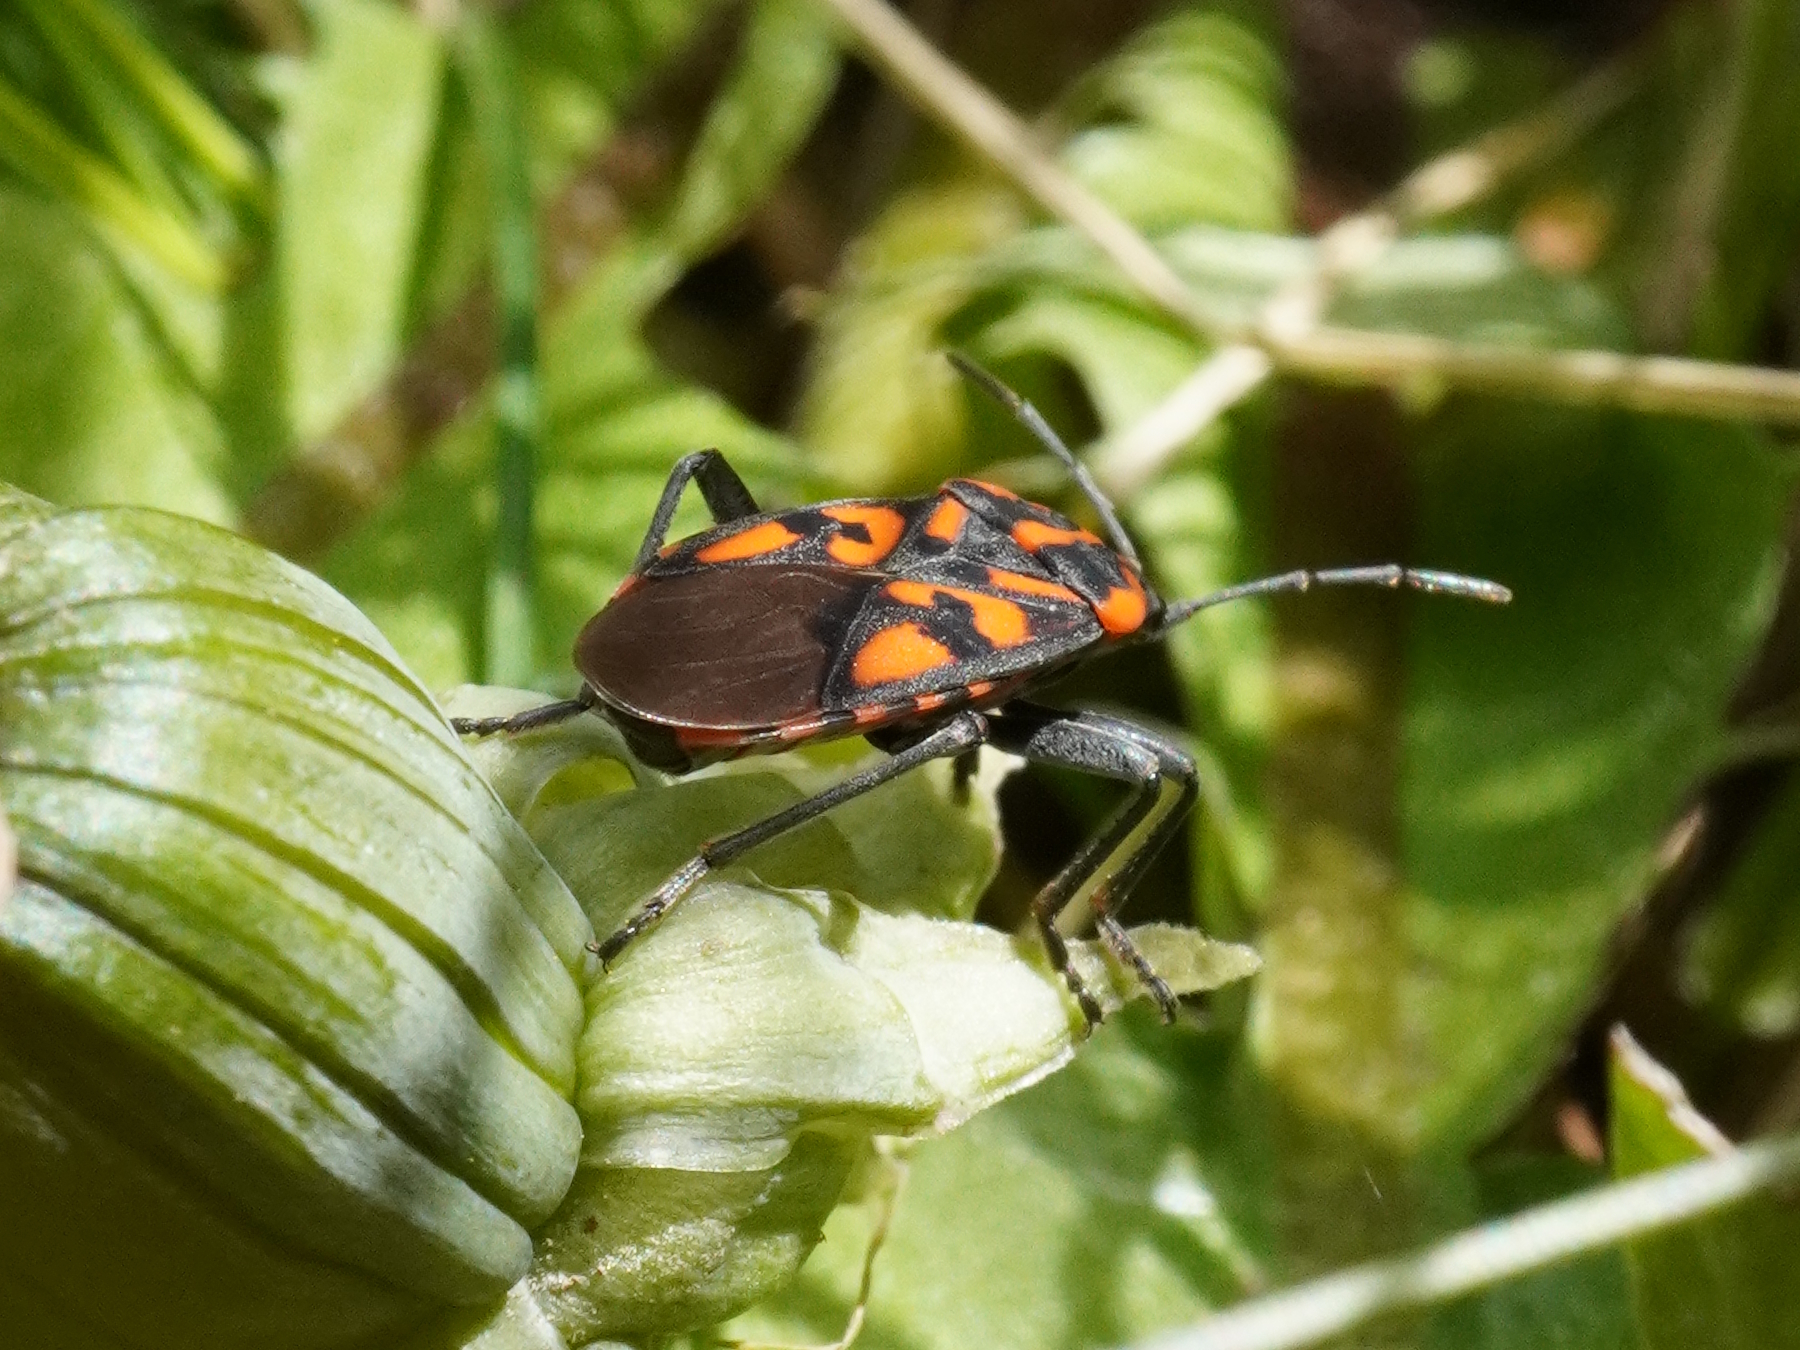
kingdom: Animalia
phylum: Arthropoda
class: Insecta
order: Hemiptera
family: Lygaeidae
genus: Spilostethus
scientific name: Spilostethus saxatilis
